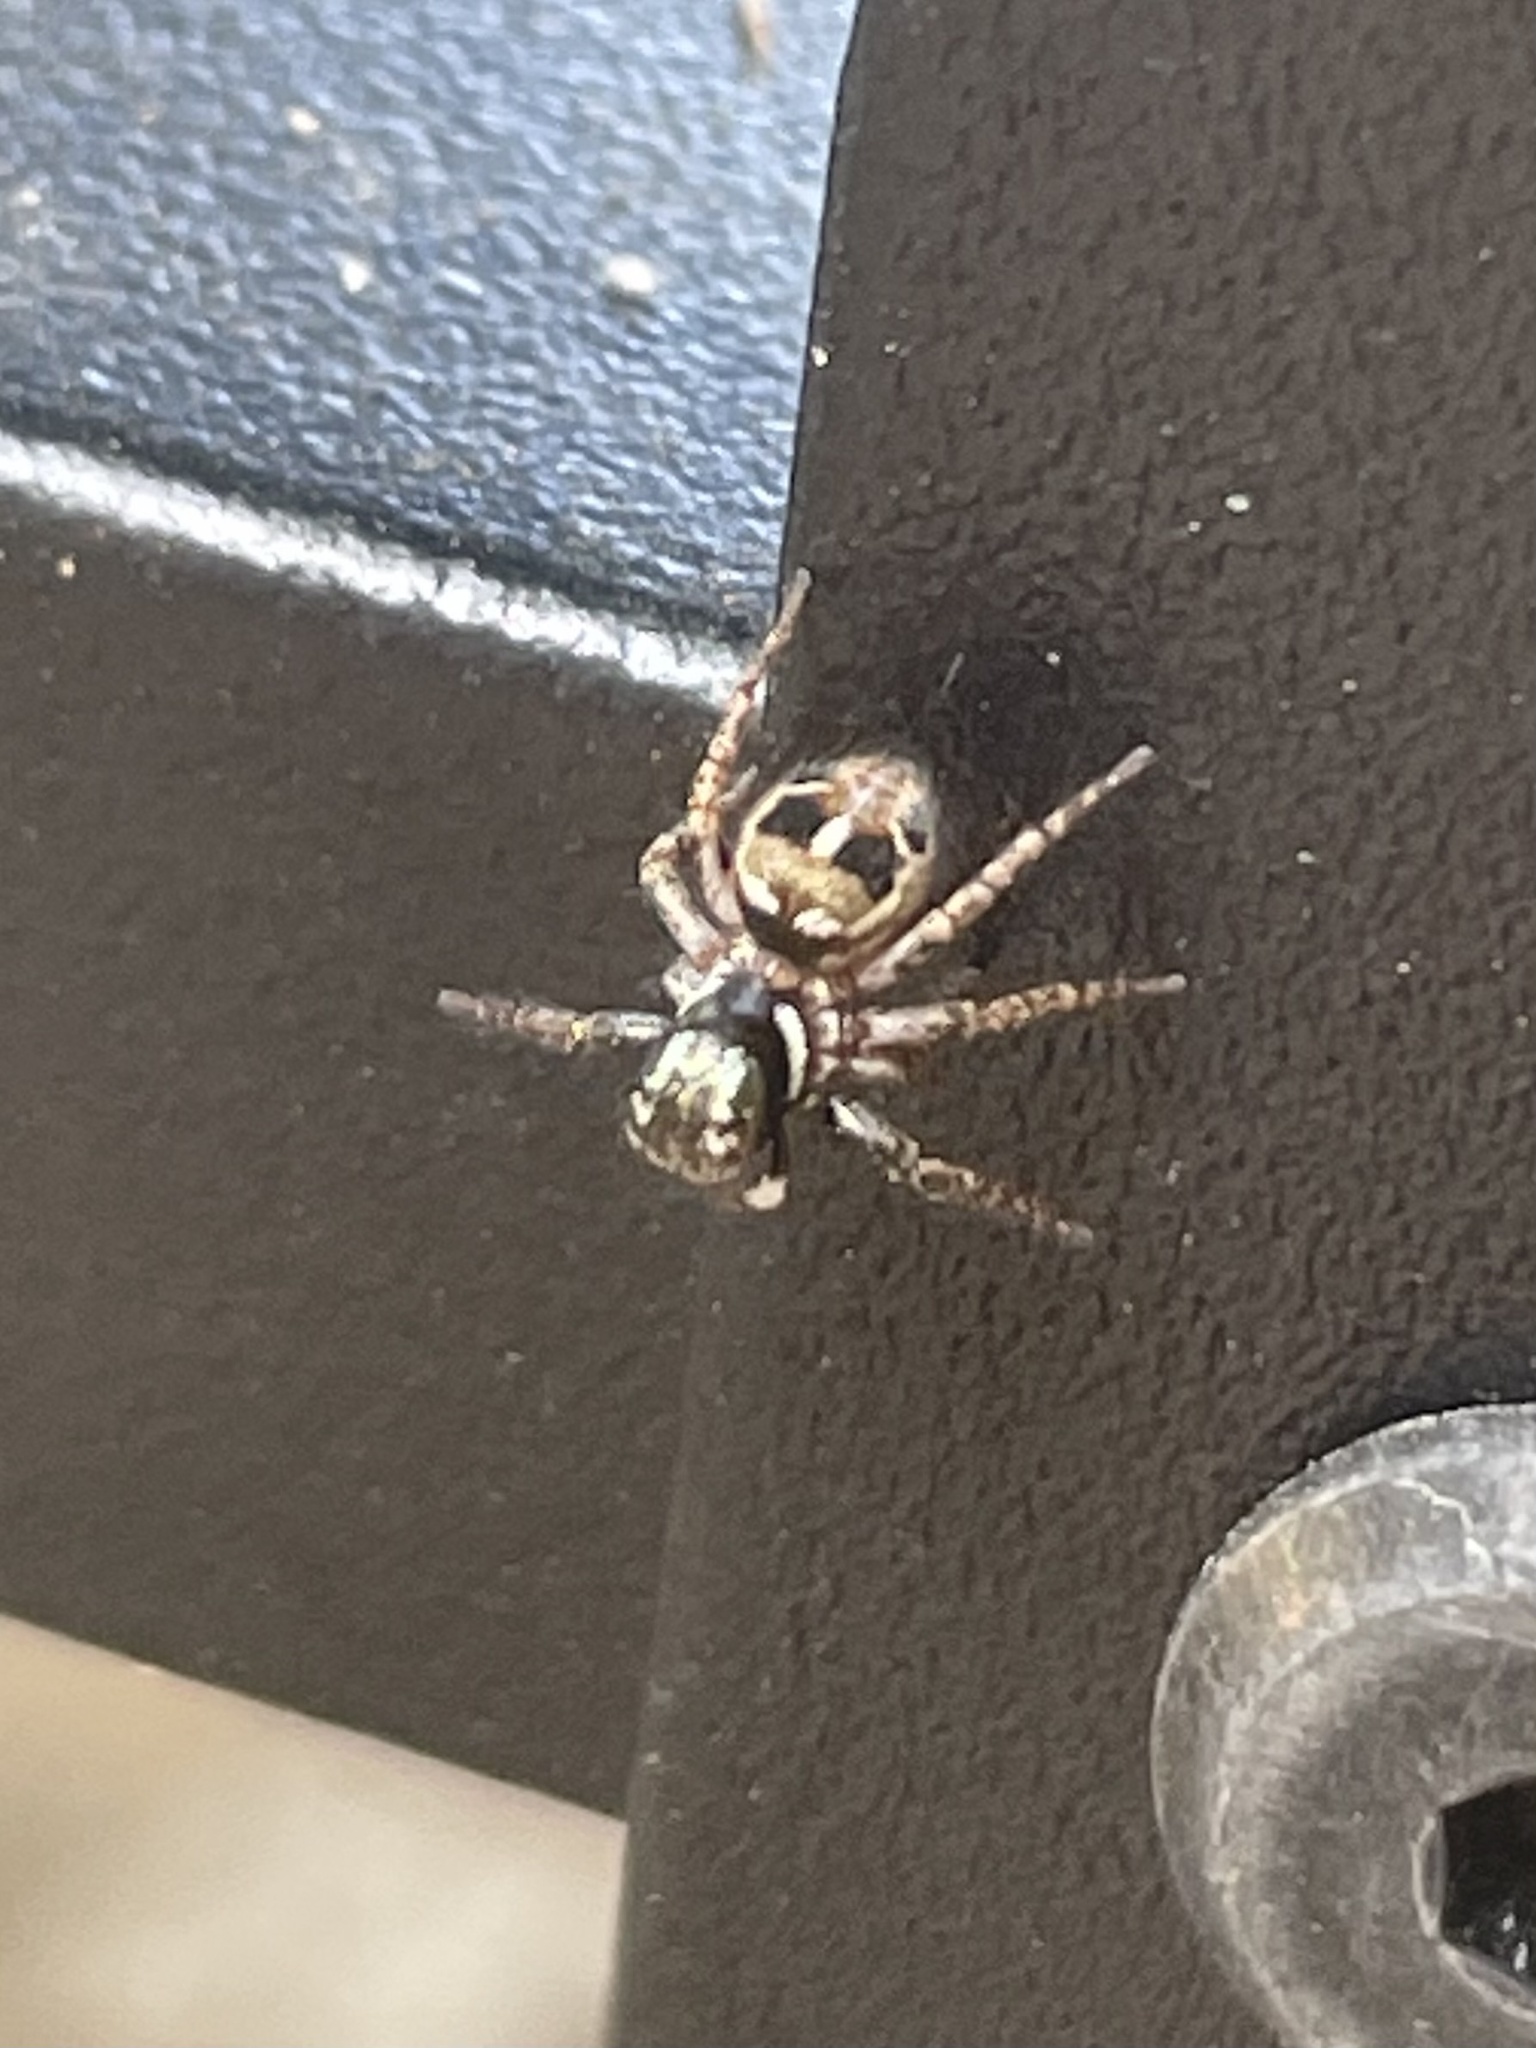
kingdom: Animalia
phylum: Arthropoda
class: Arachnida
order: Araneae
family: Salticidae
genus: Anasaitis
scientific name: Anasaitis canosa
